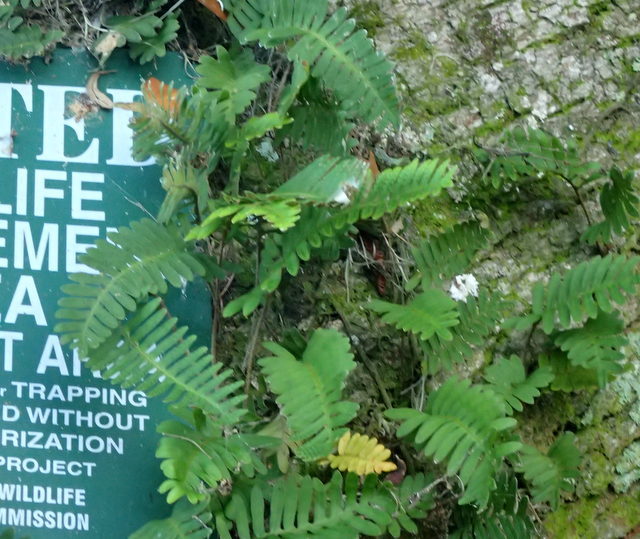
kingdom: Plantae
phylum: Tracheophyta
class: Polypodiopsida
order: Polypodiales
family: Polypodiaceae
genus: Pleopeltis
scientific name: Pleopeltis michauxiana
